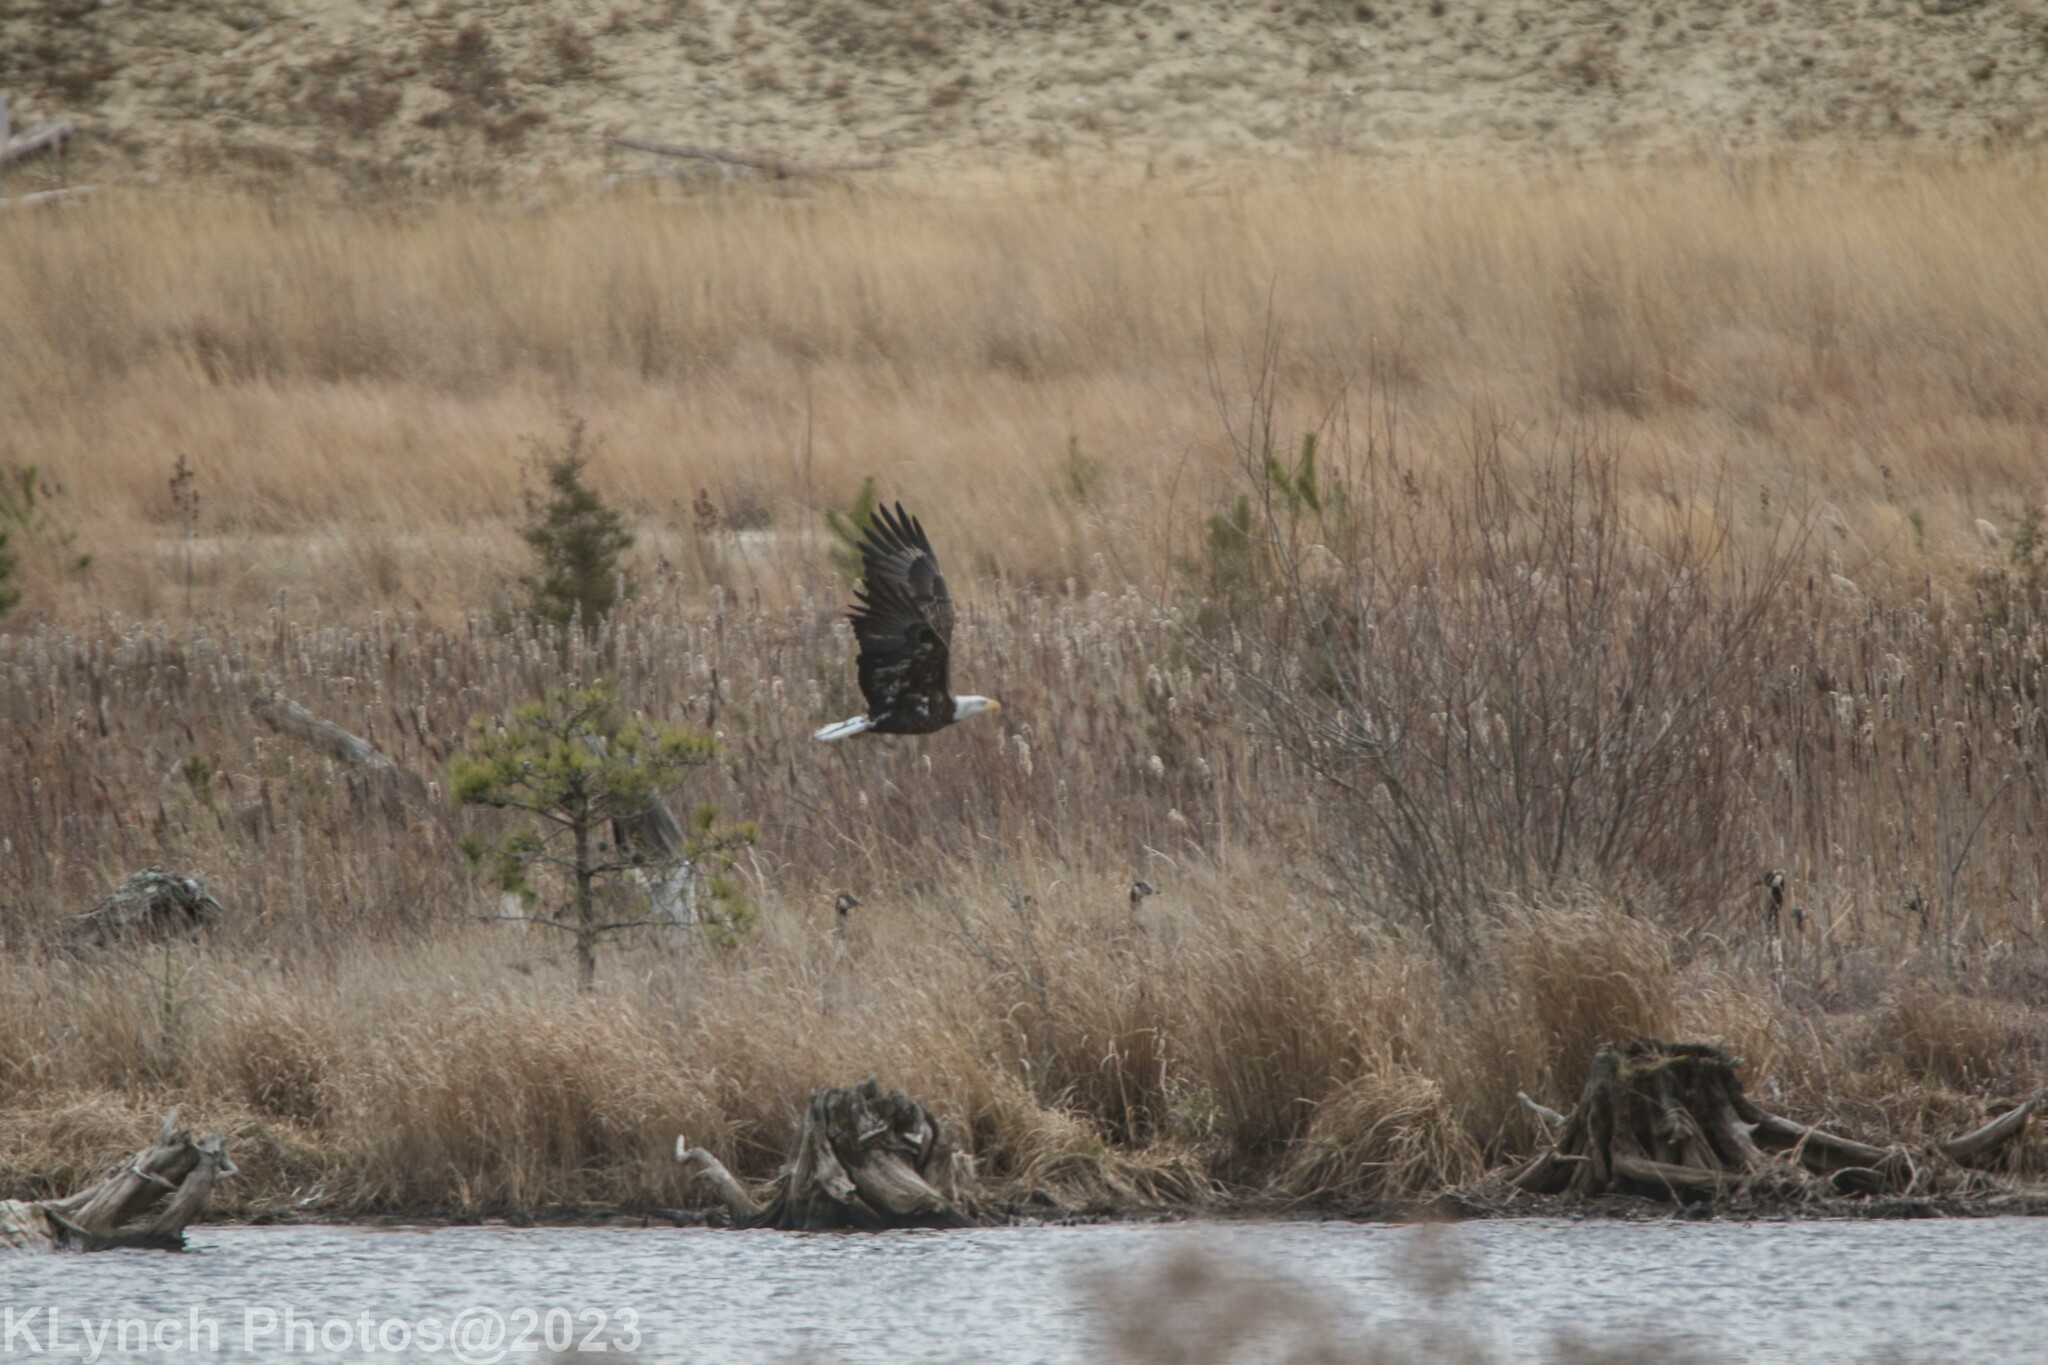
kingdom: Animalia
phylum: Chordata
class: Aves
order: Accipitriformes
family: Accipitridae
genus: Haliaeetus
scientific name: Haliaeetus leucocephalus
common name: Bald eagle
